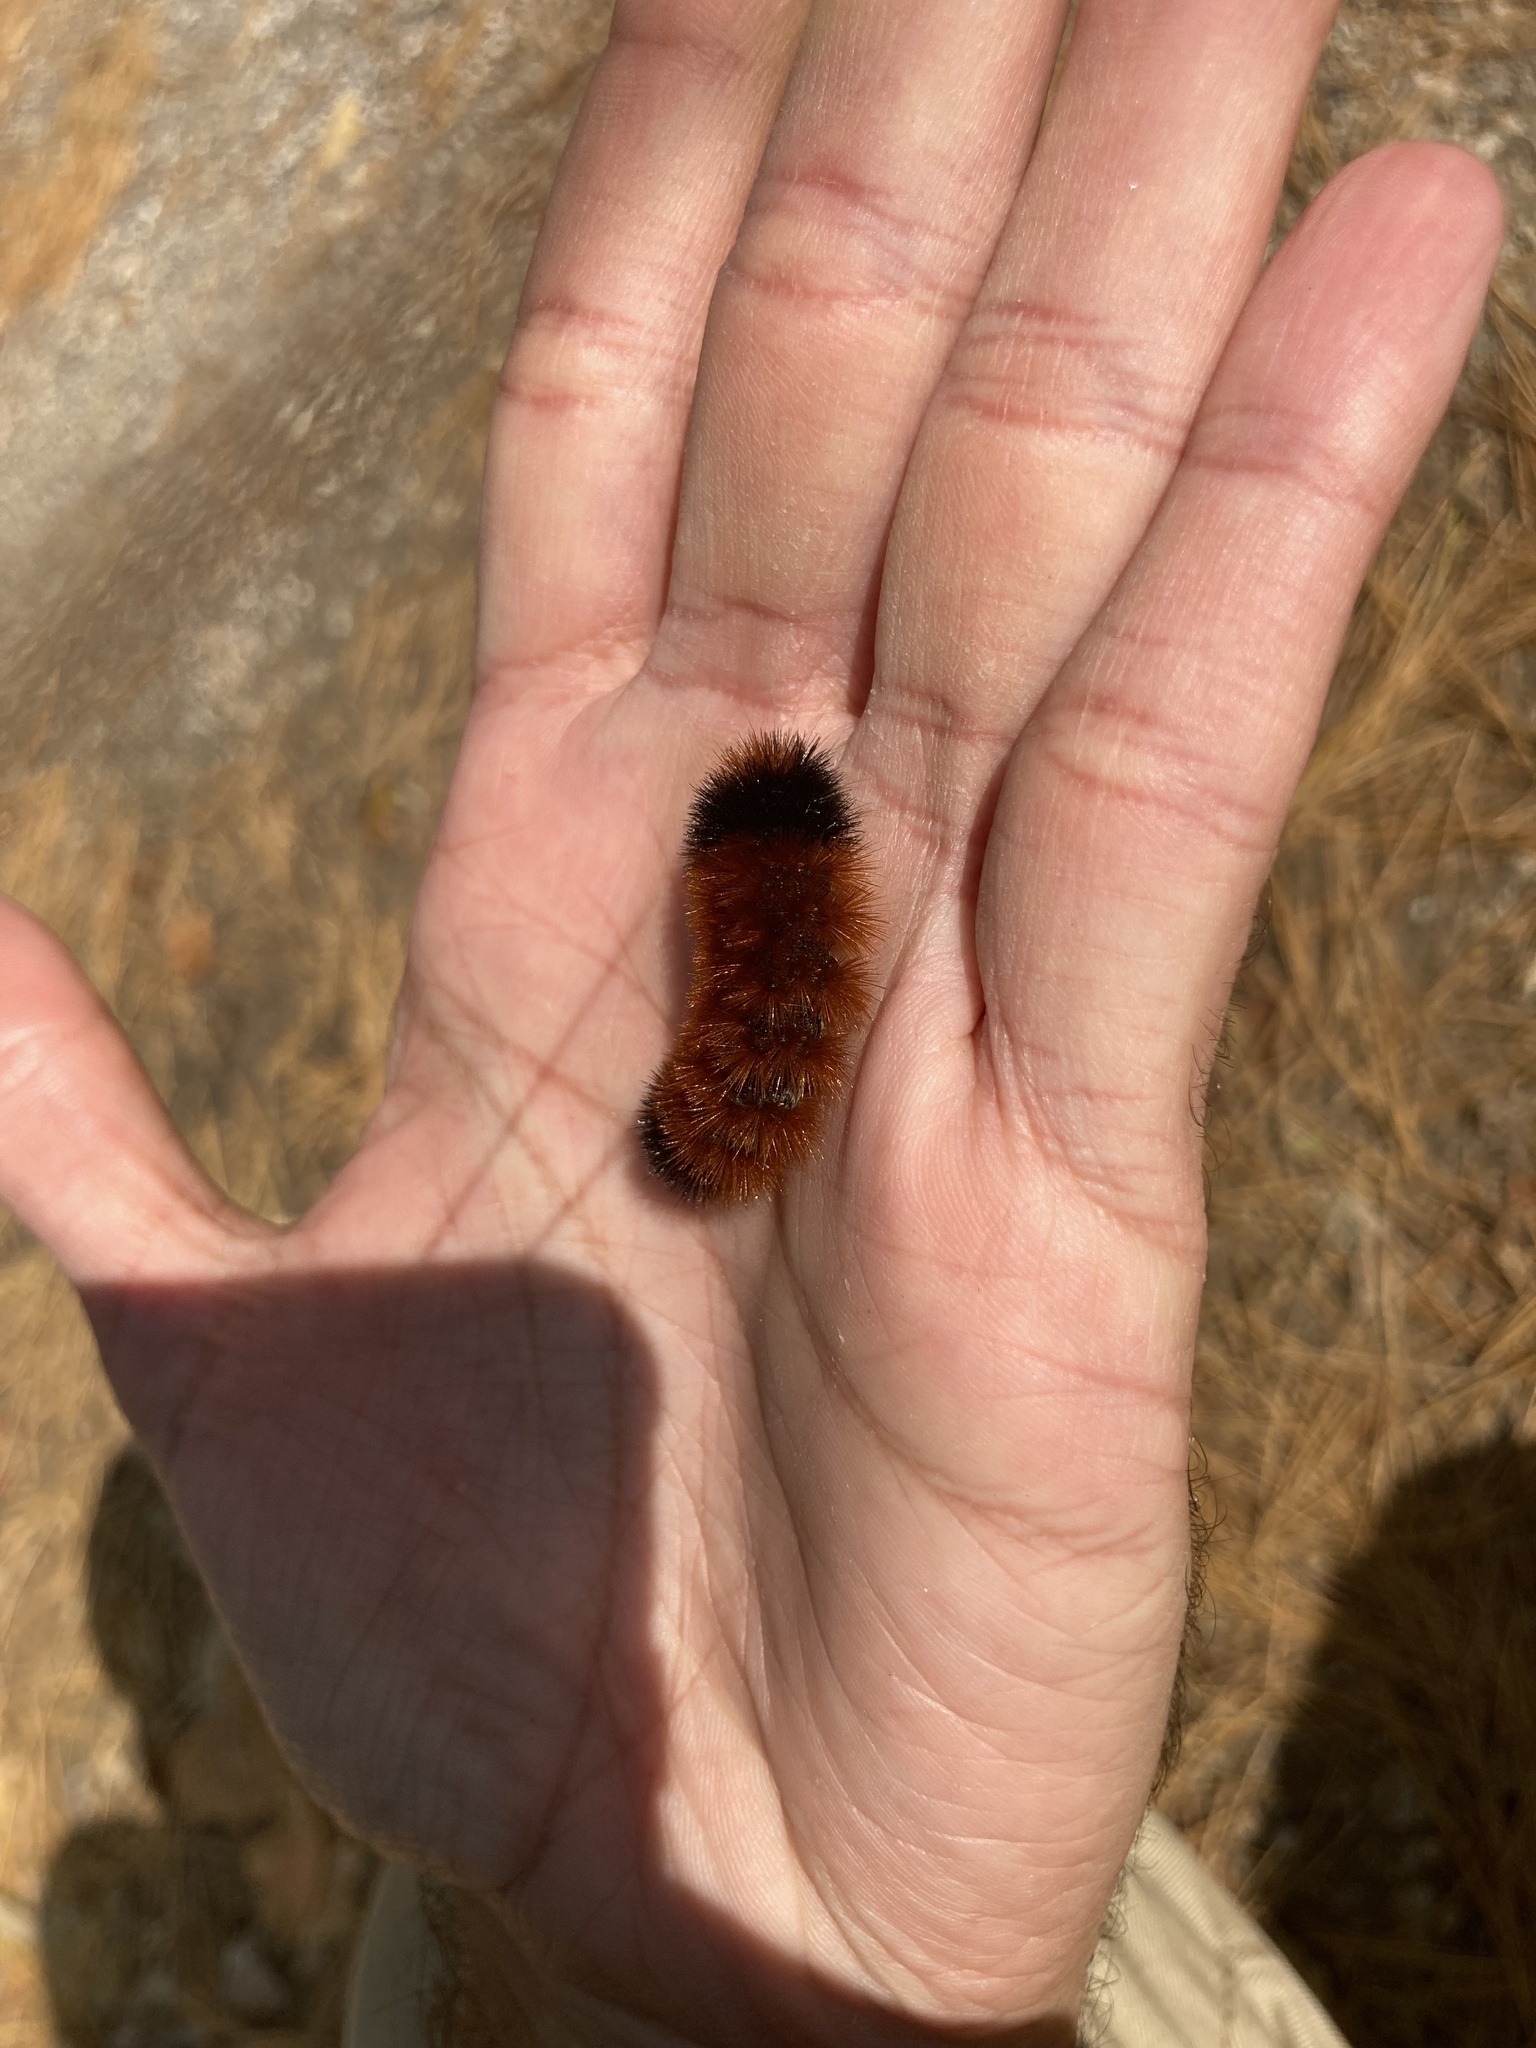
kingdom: Animalia
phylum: Arthropoda
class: Insecta
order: Lepidoptera
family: Erebidae
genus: Pyrrharctia
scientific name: Pyrrharctia isabella
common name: Isabella tiger moth
